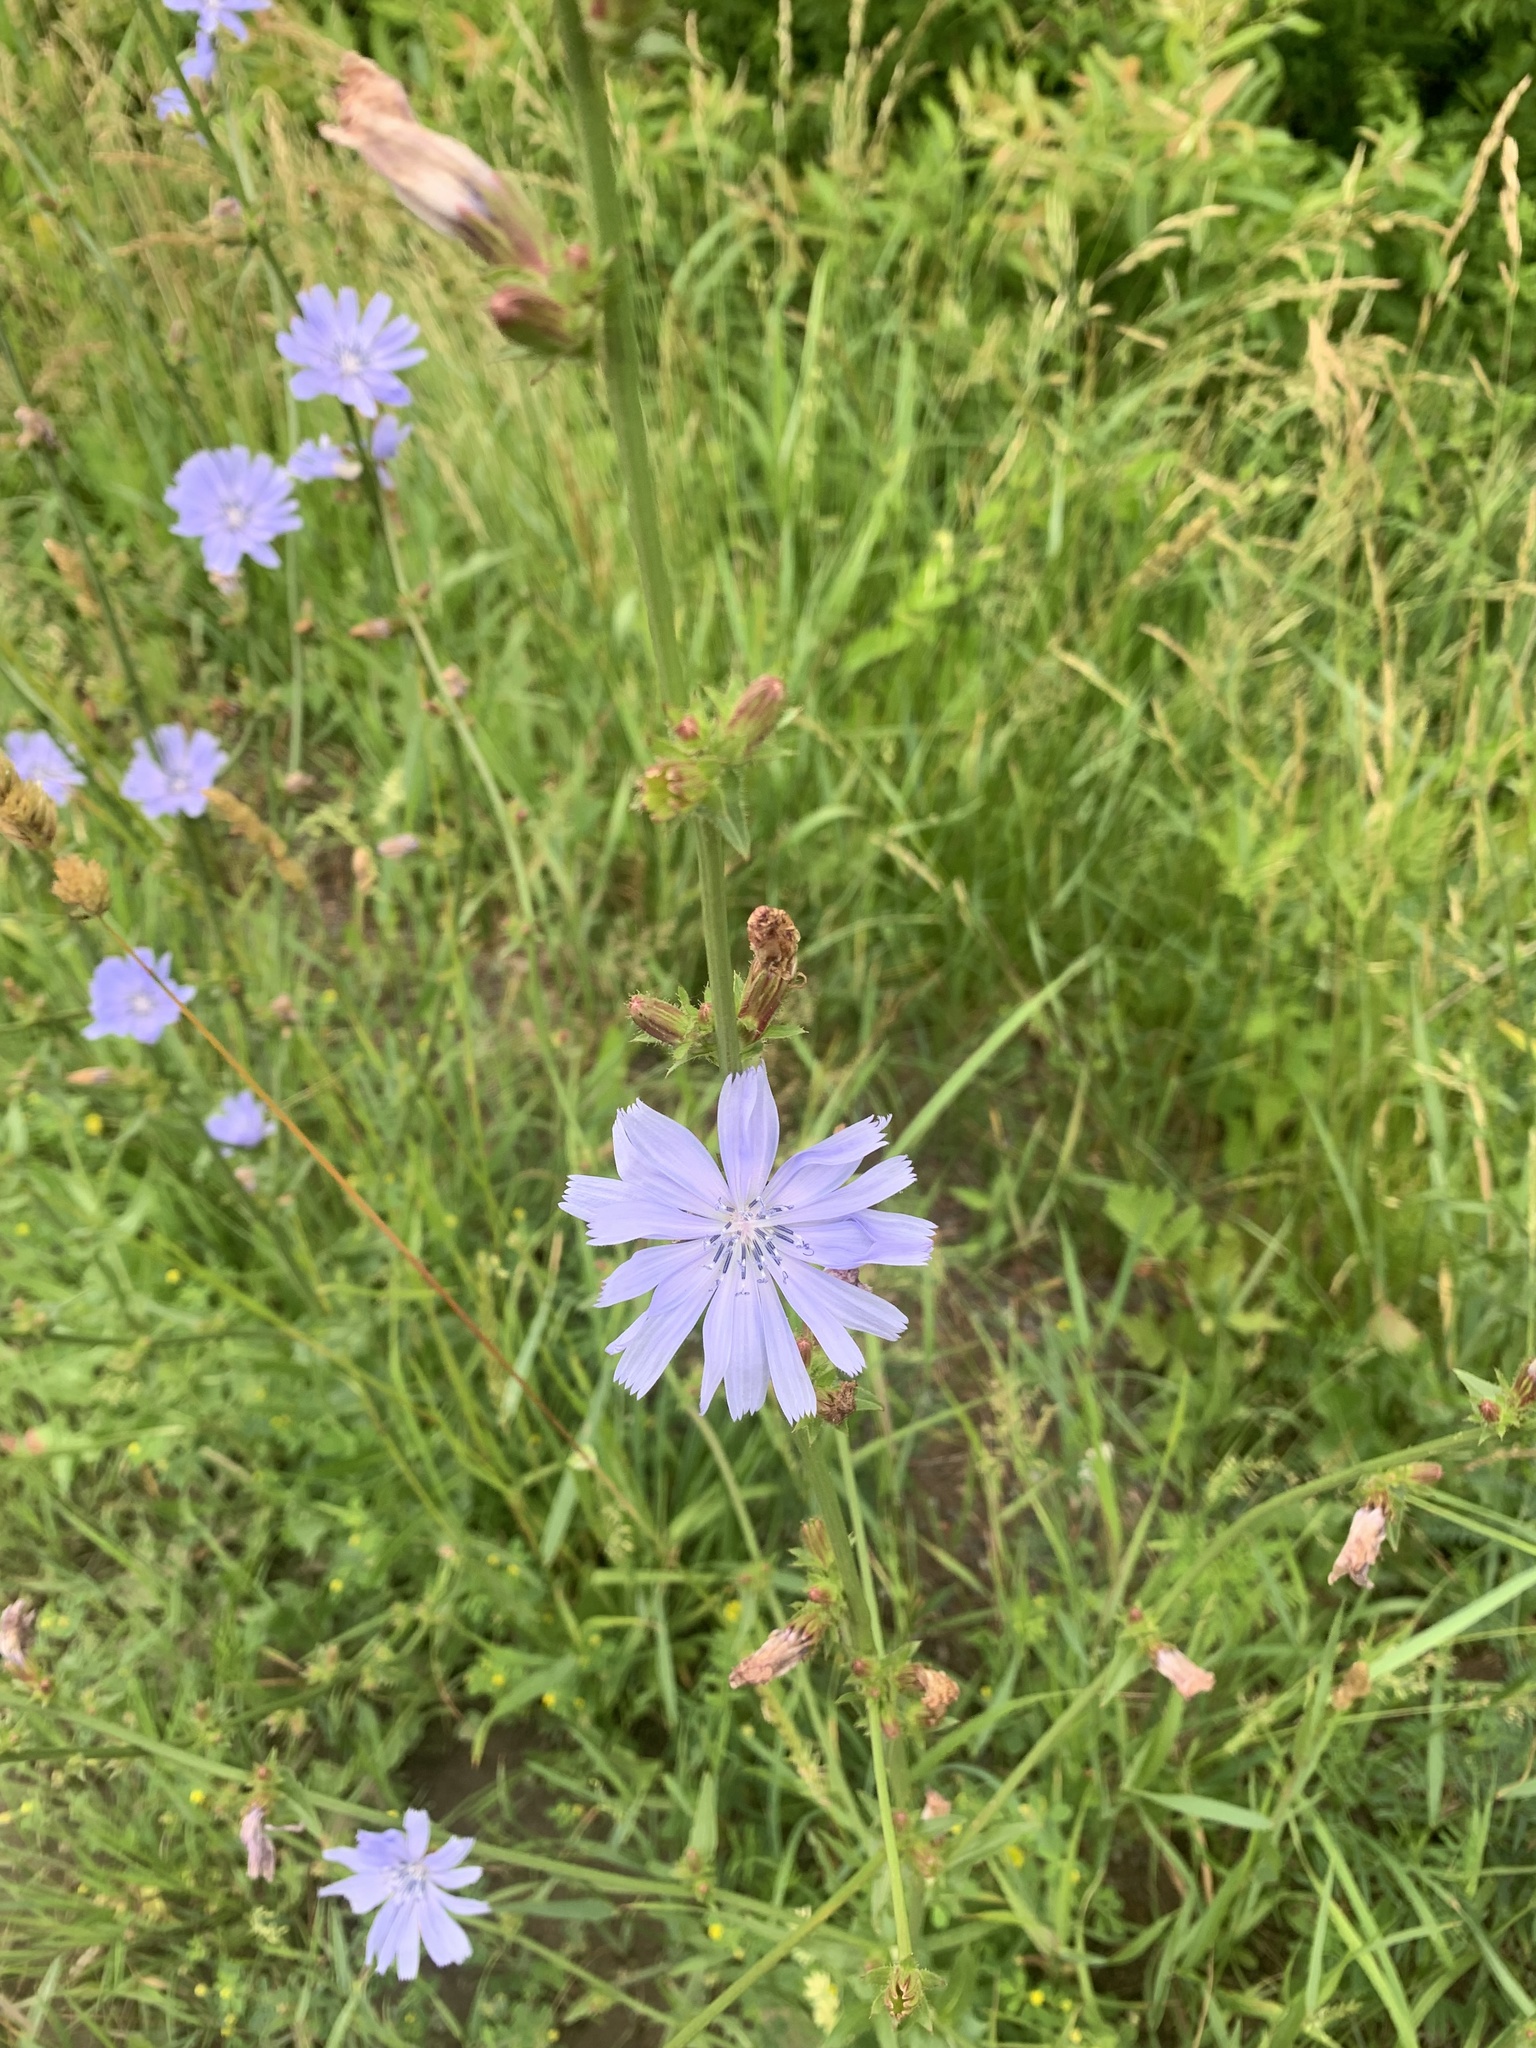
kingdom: Plantae
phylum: Tracheophyta
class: Magnoliopsida
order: Asterales
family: Asteraceae
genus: Cichorium
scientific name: Cichorium intybus
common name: Chicory
